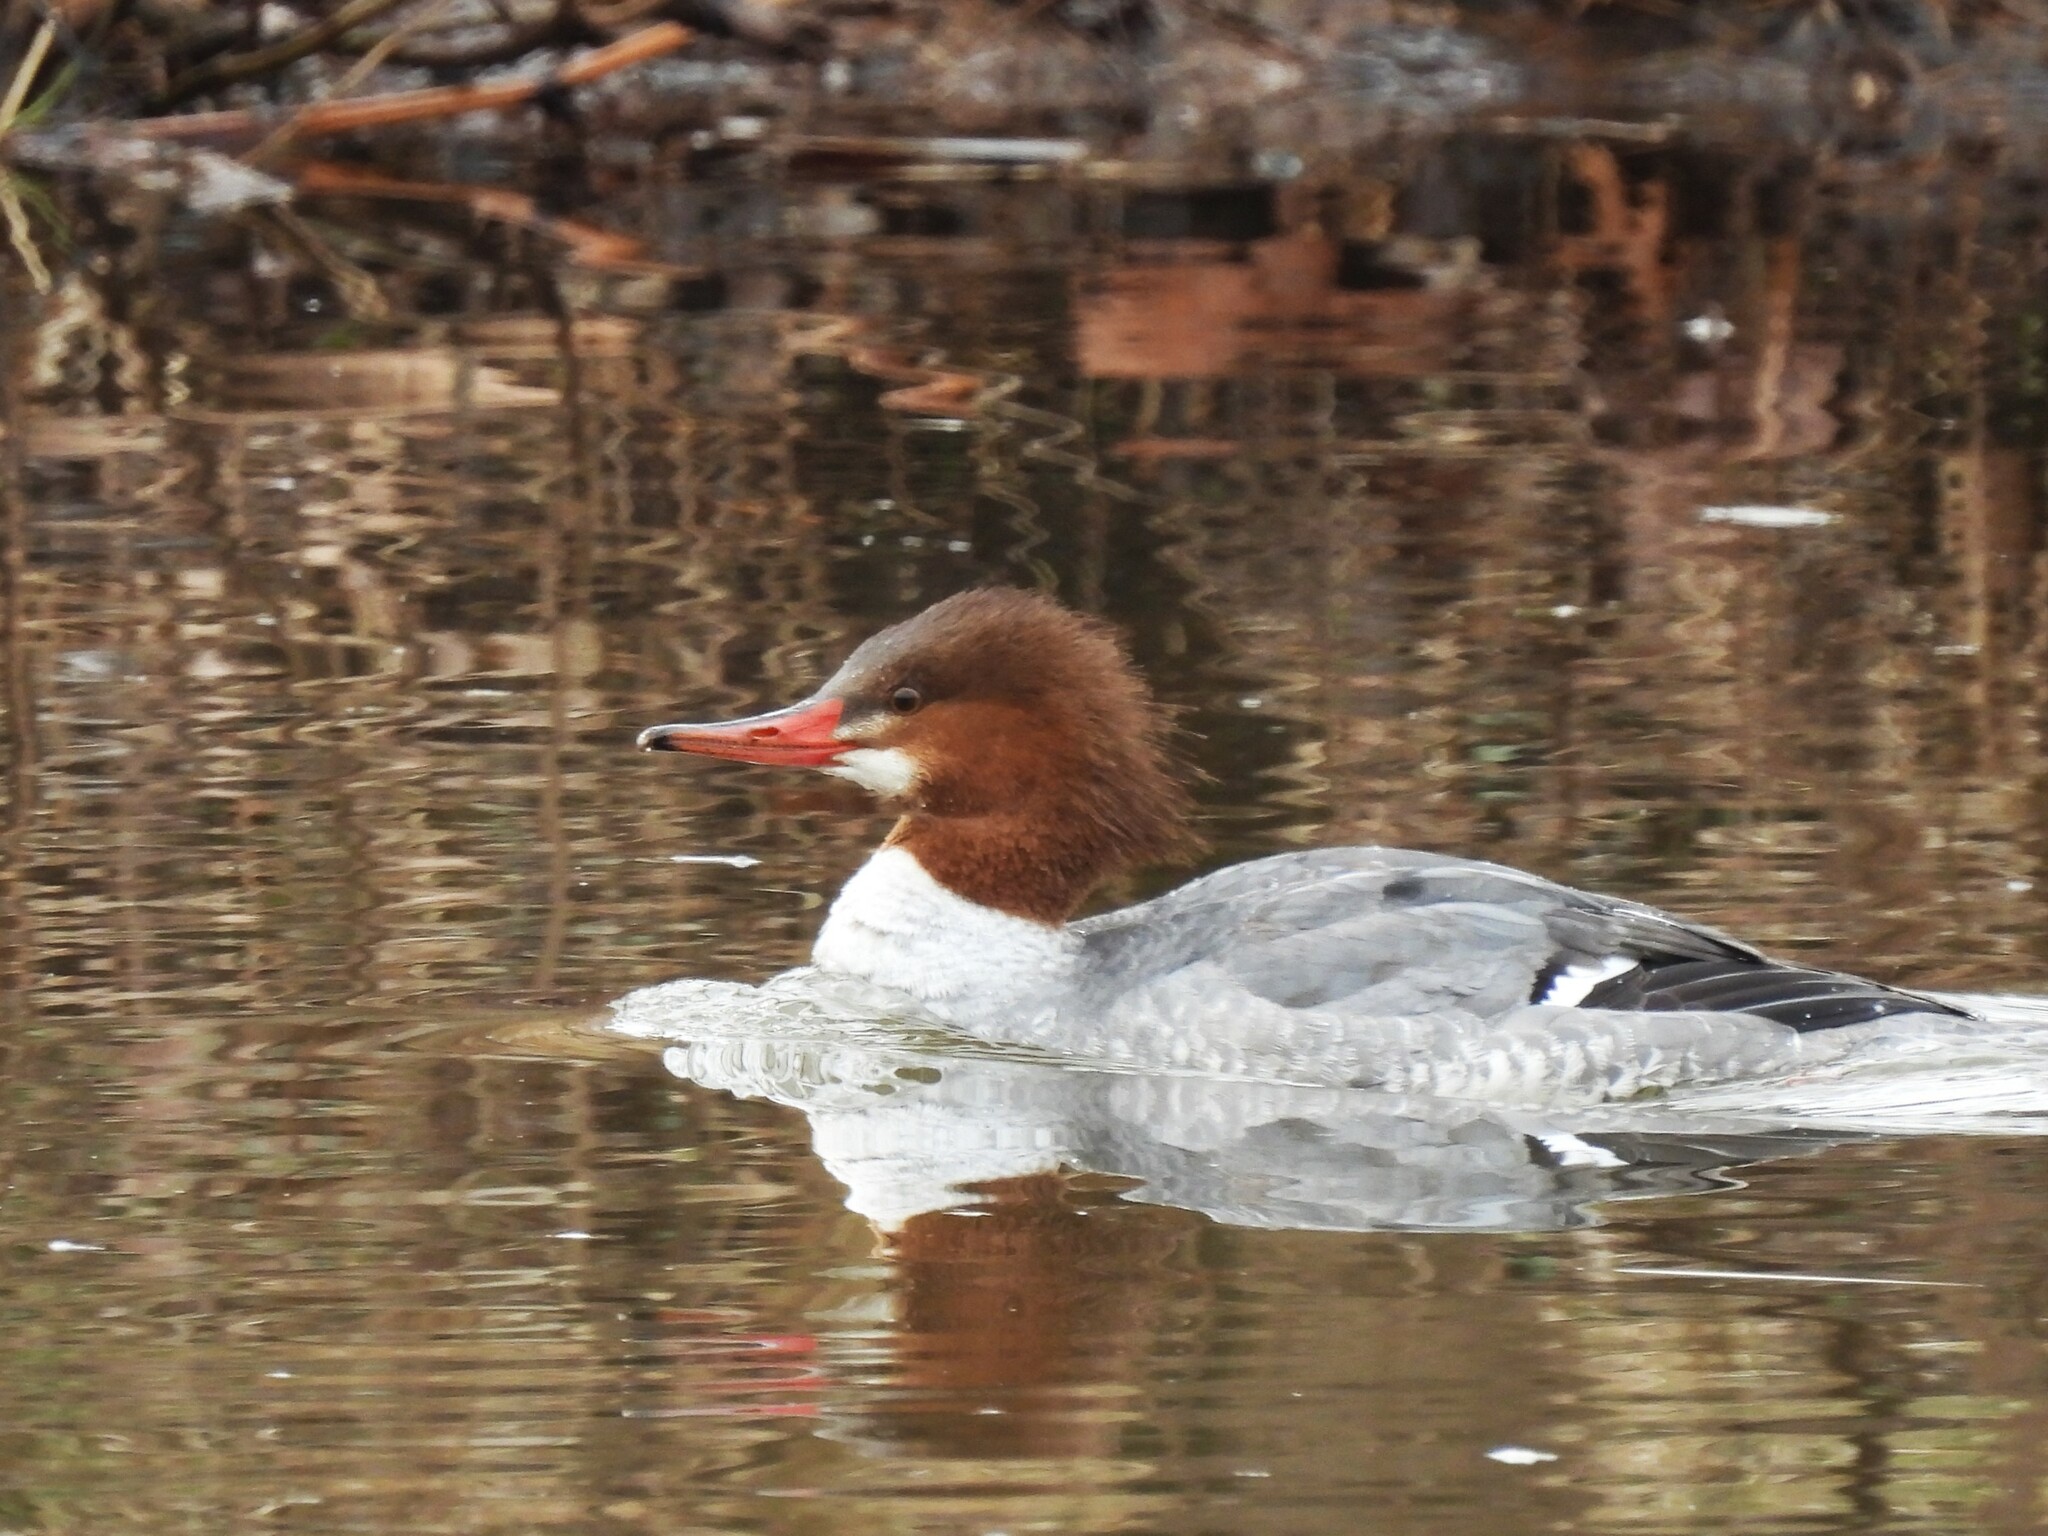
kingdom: Animalia
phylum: Chordata
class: Aves
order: Anseriformes
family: Anatidae
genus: Mergus
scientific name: Mergus merganser
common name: Common merganser
